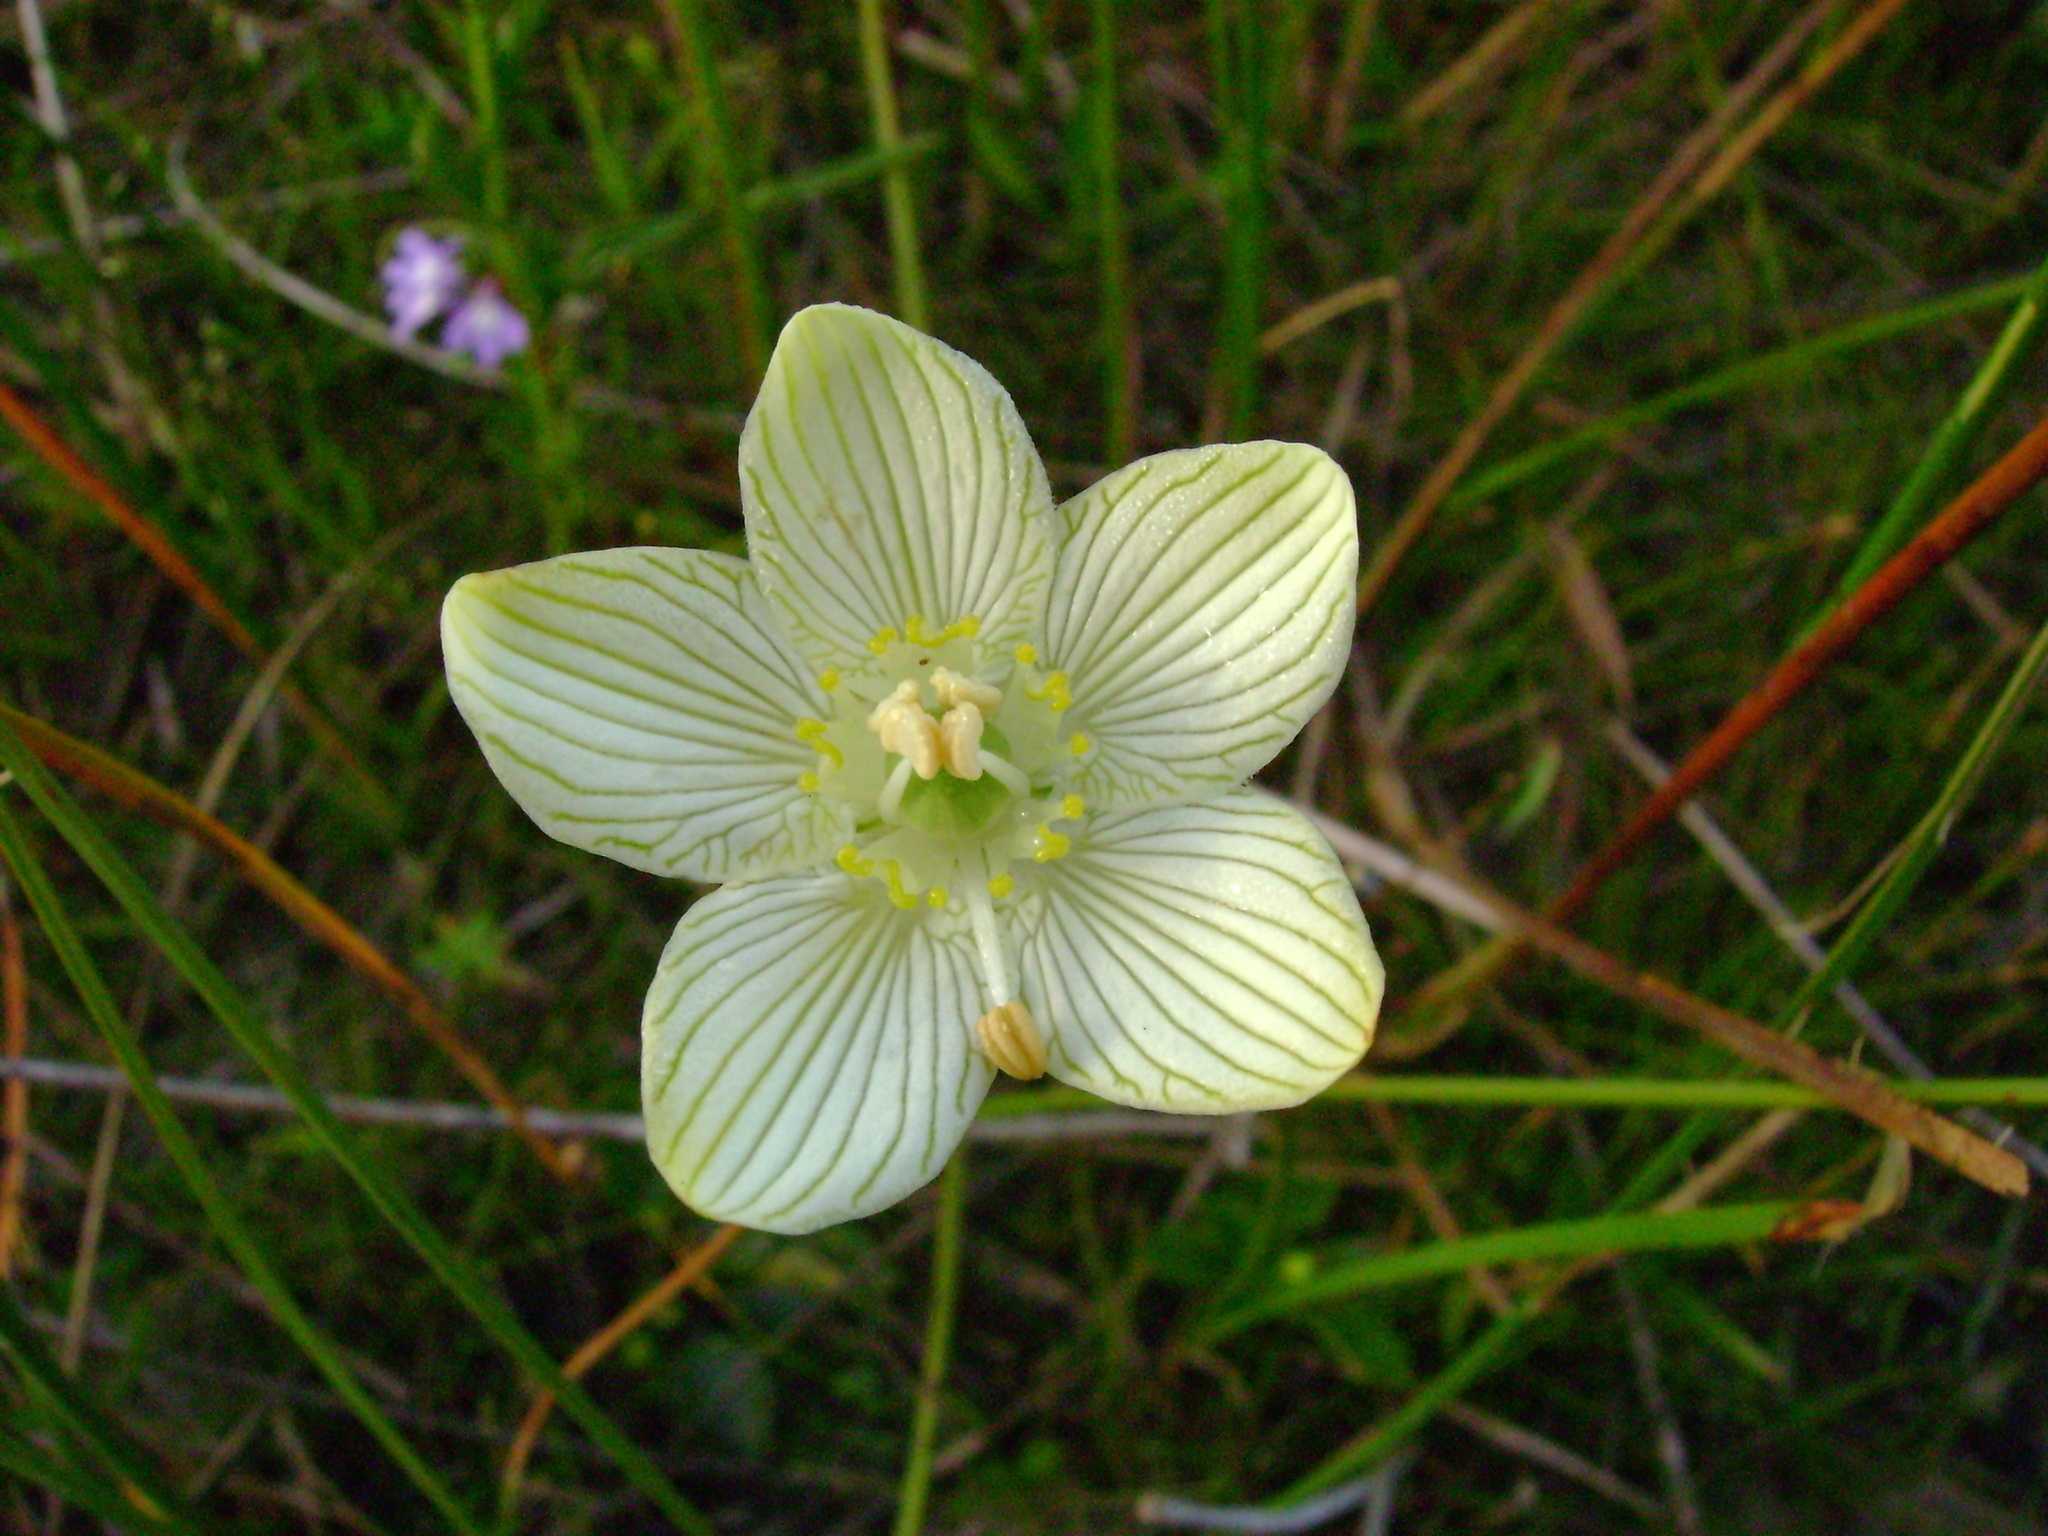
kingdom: Plantae
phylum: Tracheophyta
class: Magnoliopsida
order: Celastrales
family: Parnassiaceae
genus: Parnassia
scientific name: Parnassia glauca
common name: American grass-of-parnassus
